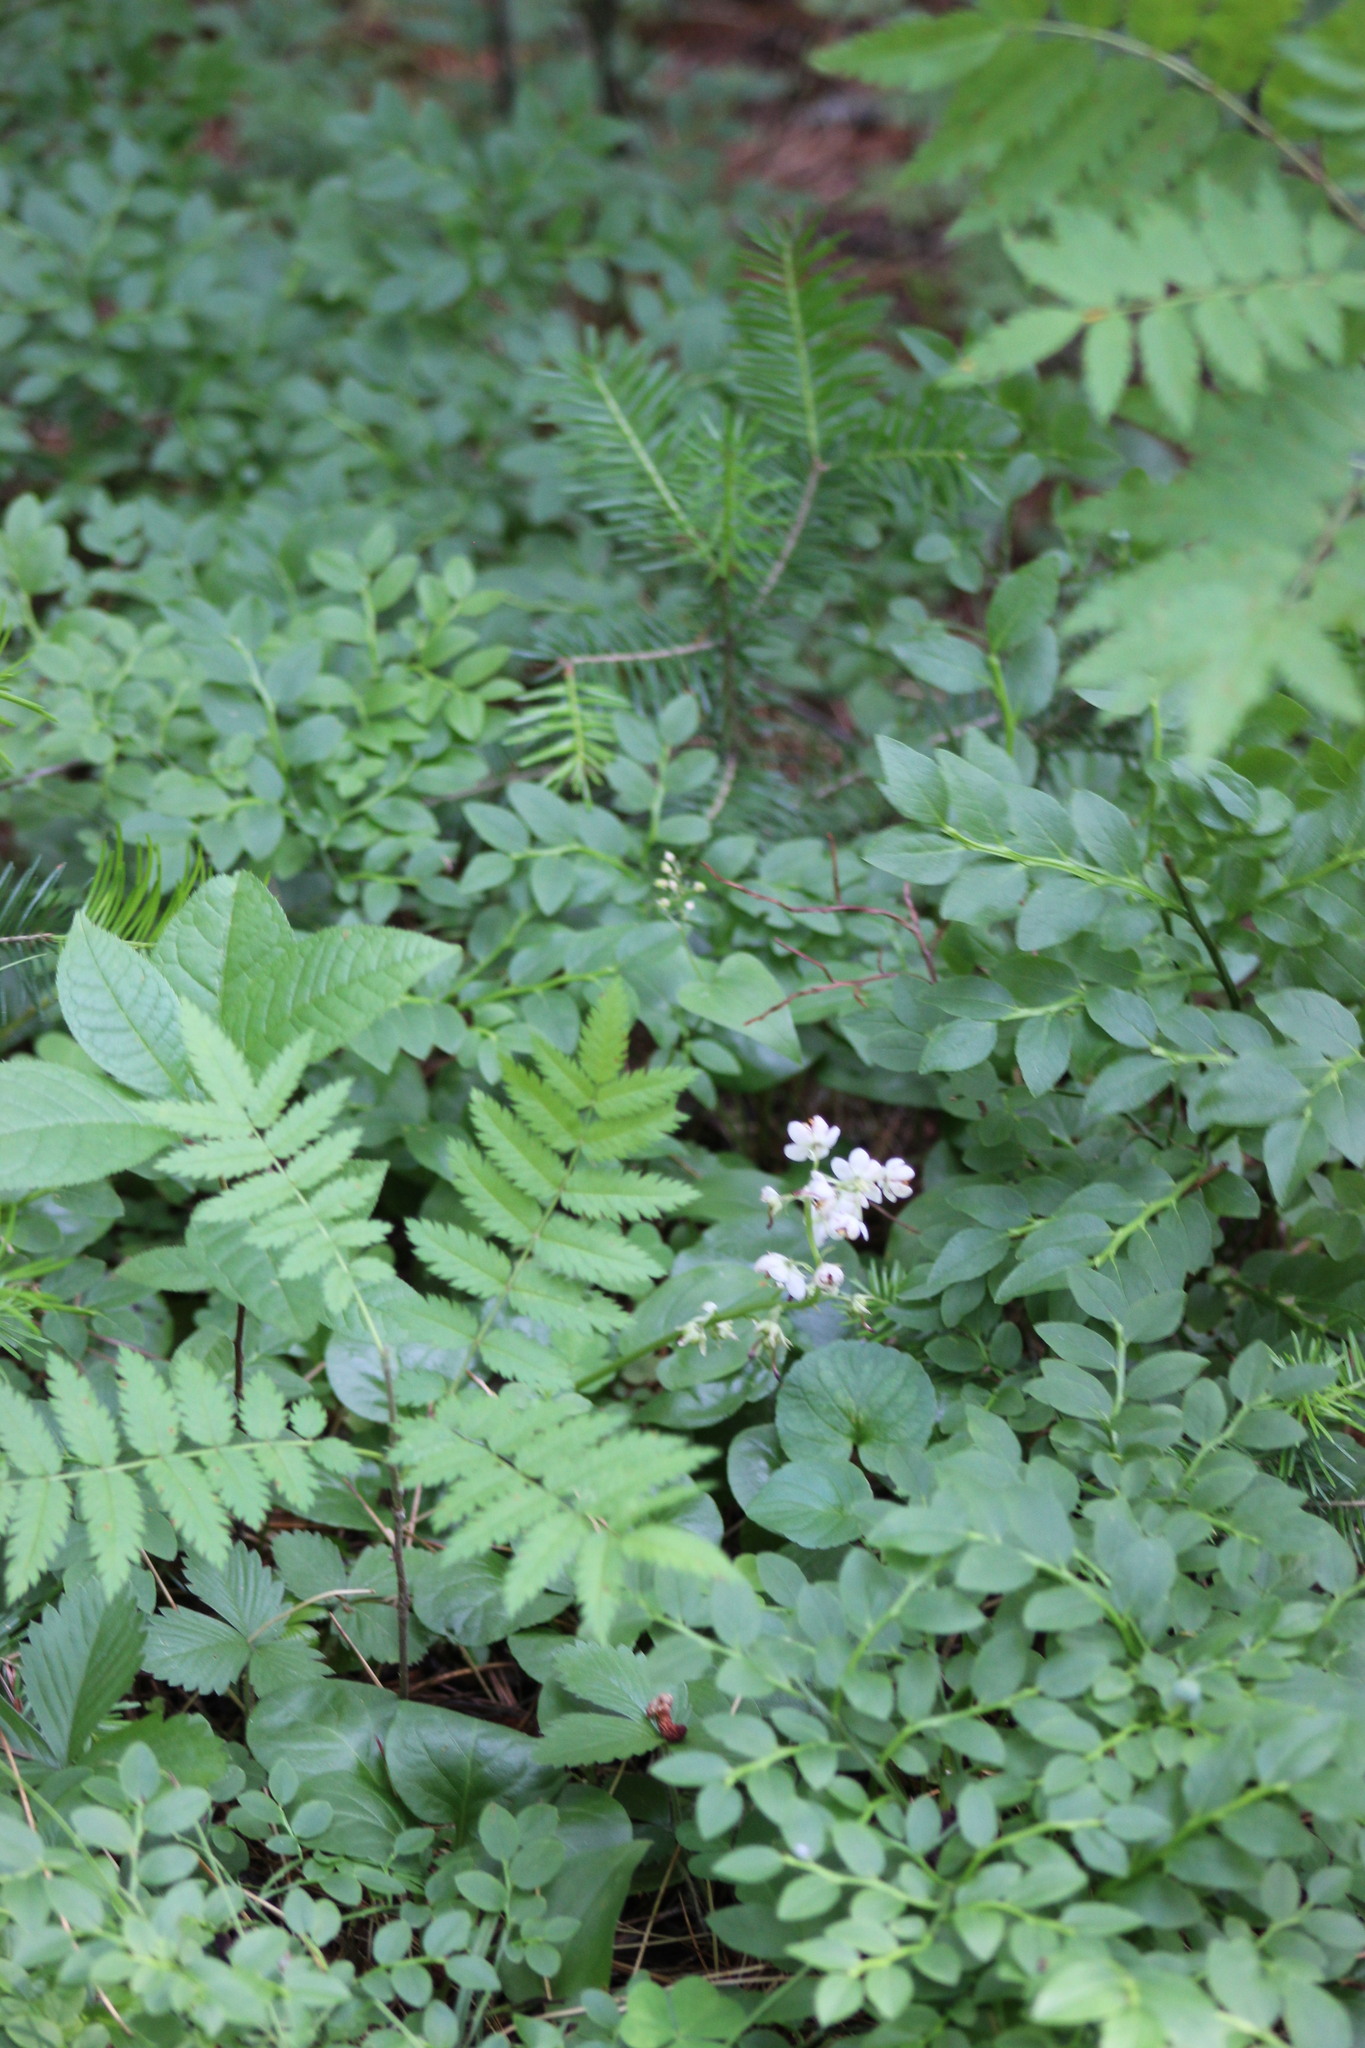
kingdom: Plantae
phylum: Tracheophyta
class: Magnoliopsida
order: Rosales
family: Rosaceae
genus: Sorbus
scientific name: Sorbus aucuparia
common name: Rowan
